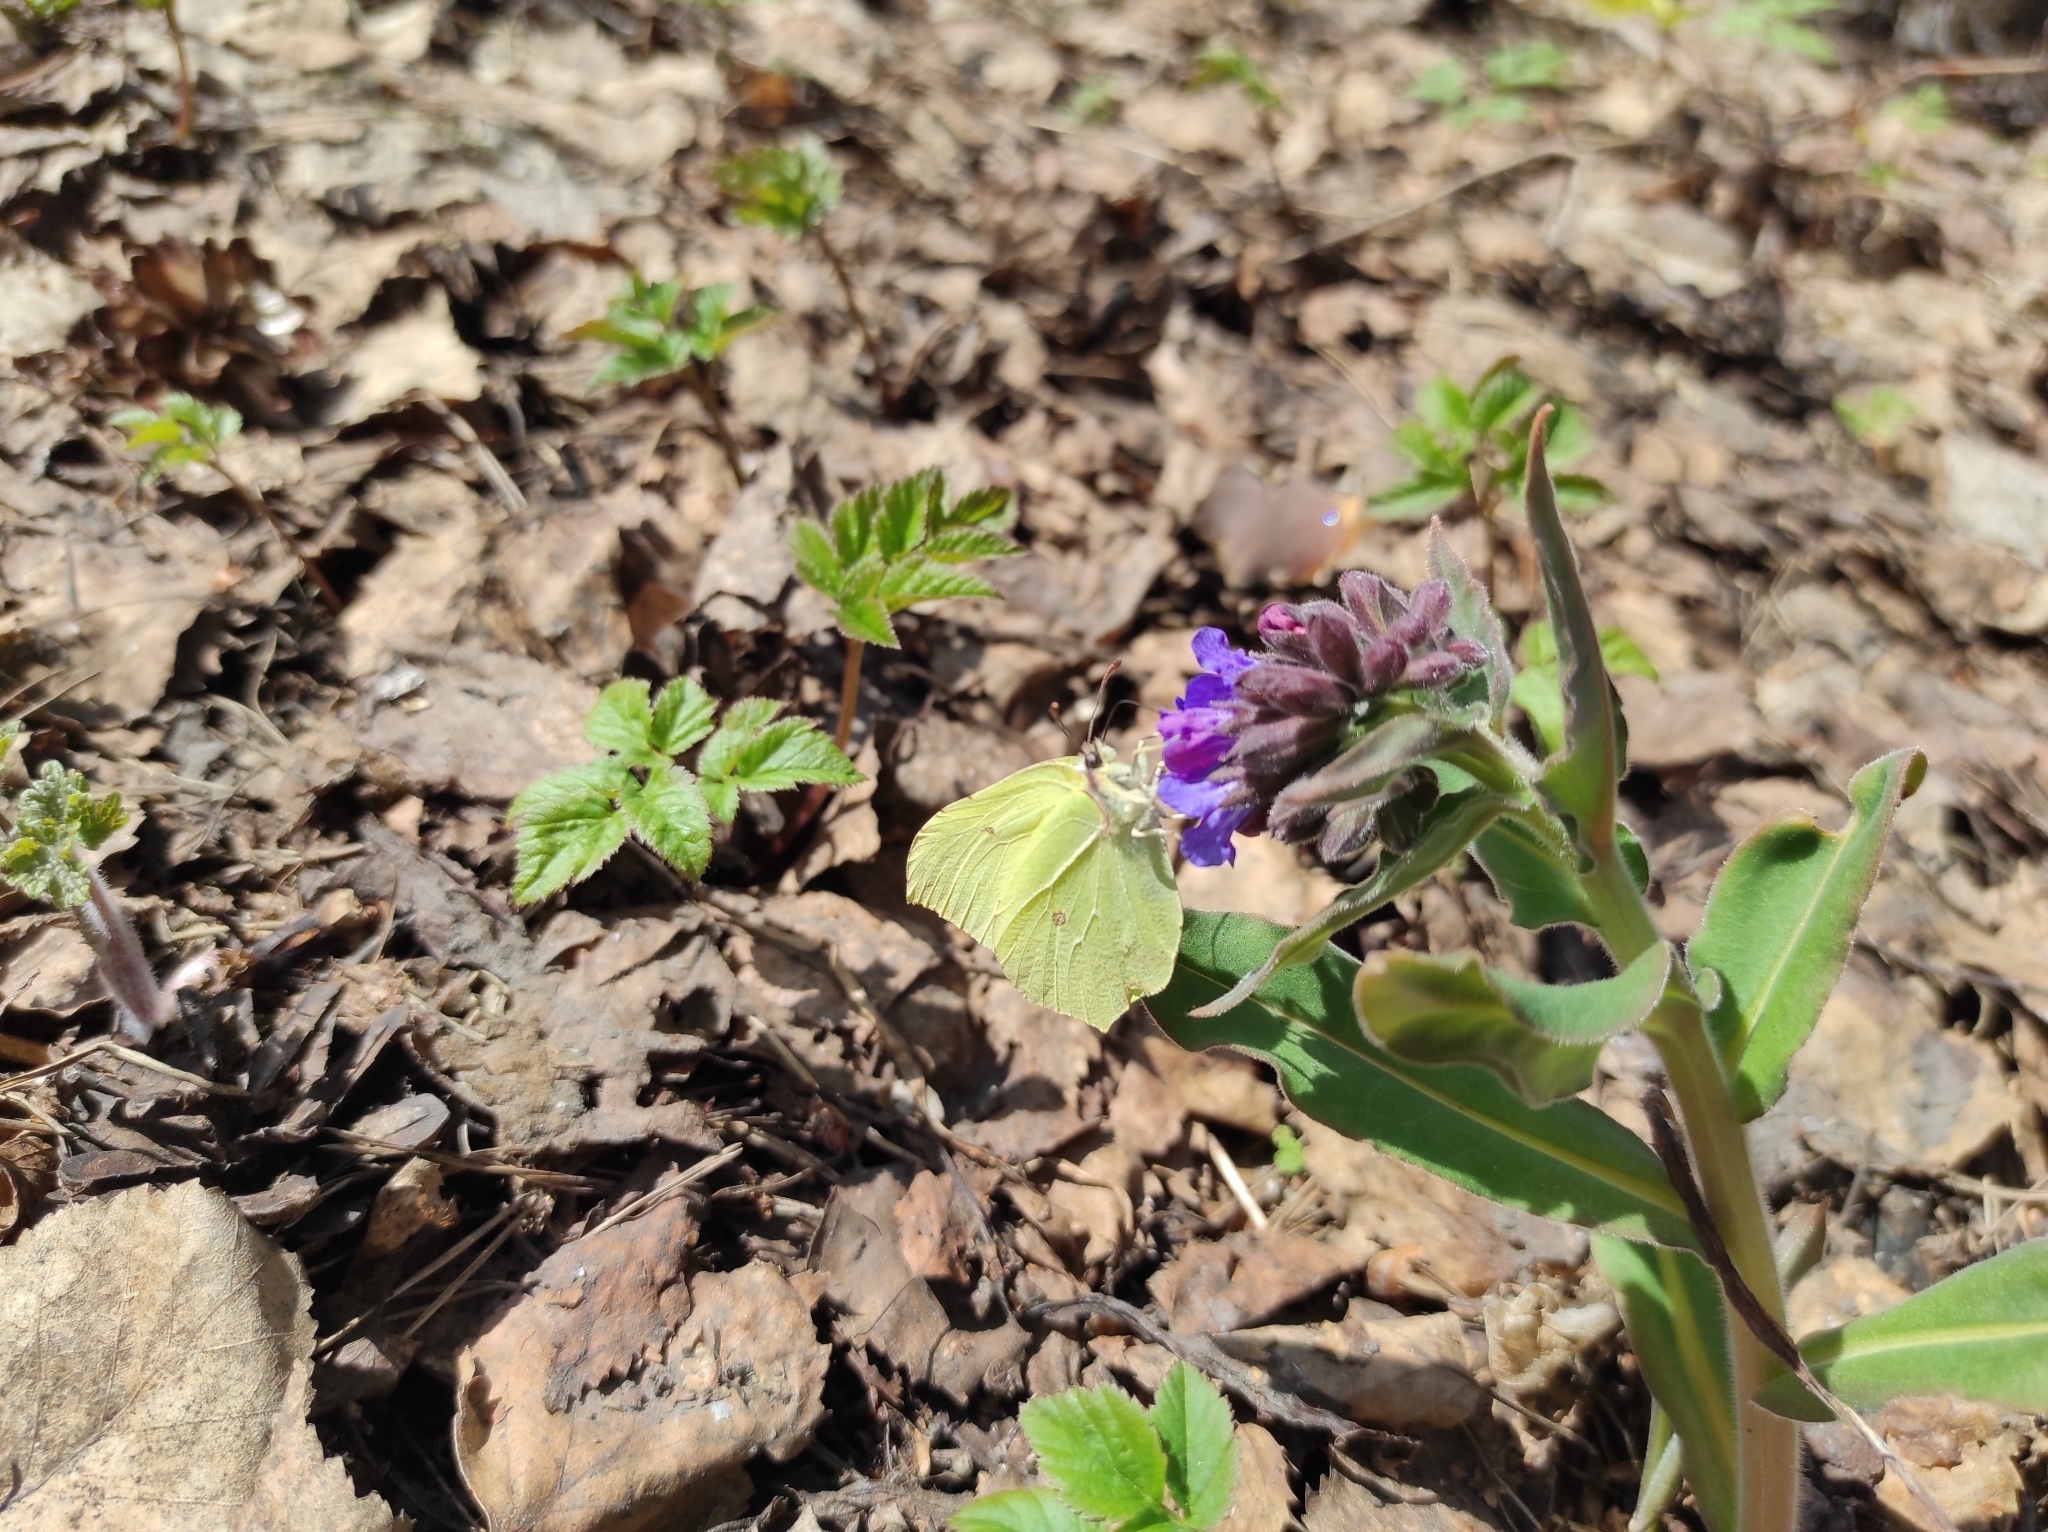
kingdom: Plantae
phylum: Tracheophyta
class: Magnoliopsida
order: Boraginales
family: Boraginaceae
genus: Pulmonaria
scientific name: Pulmonaria mollis
